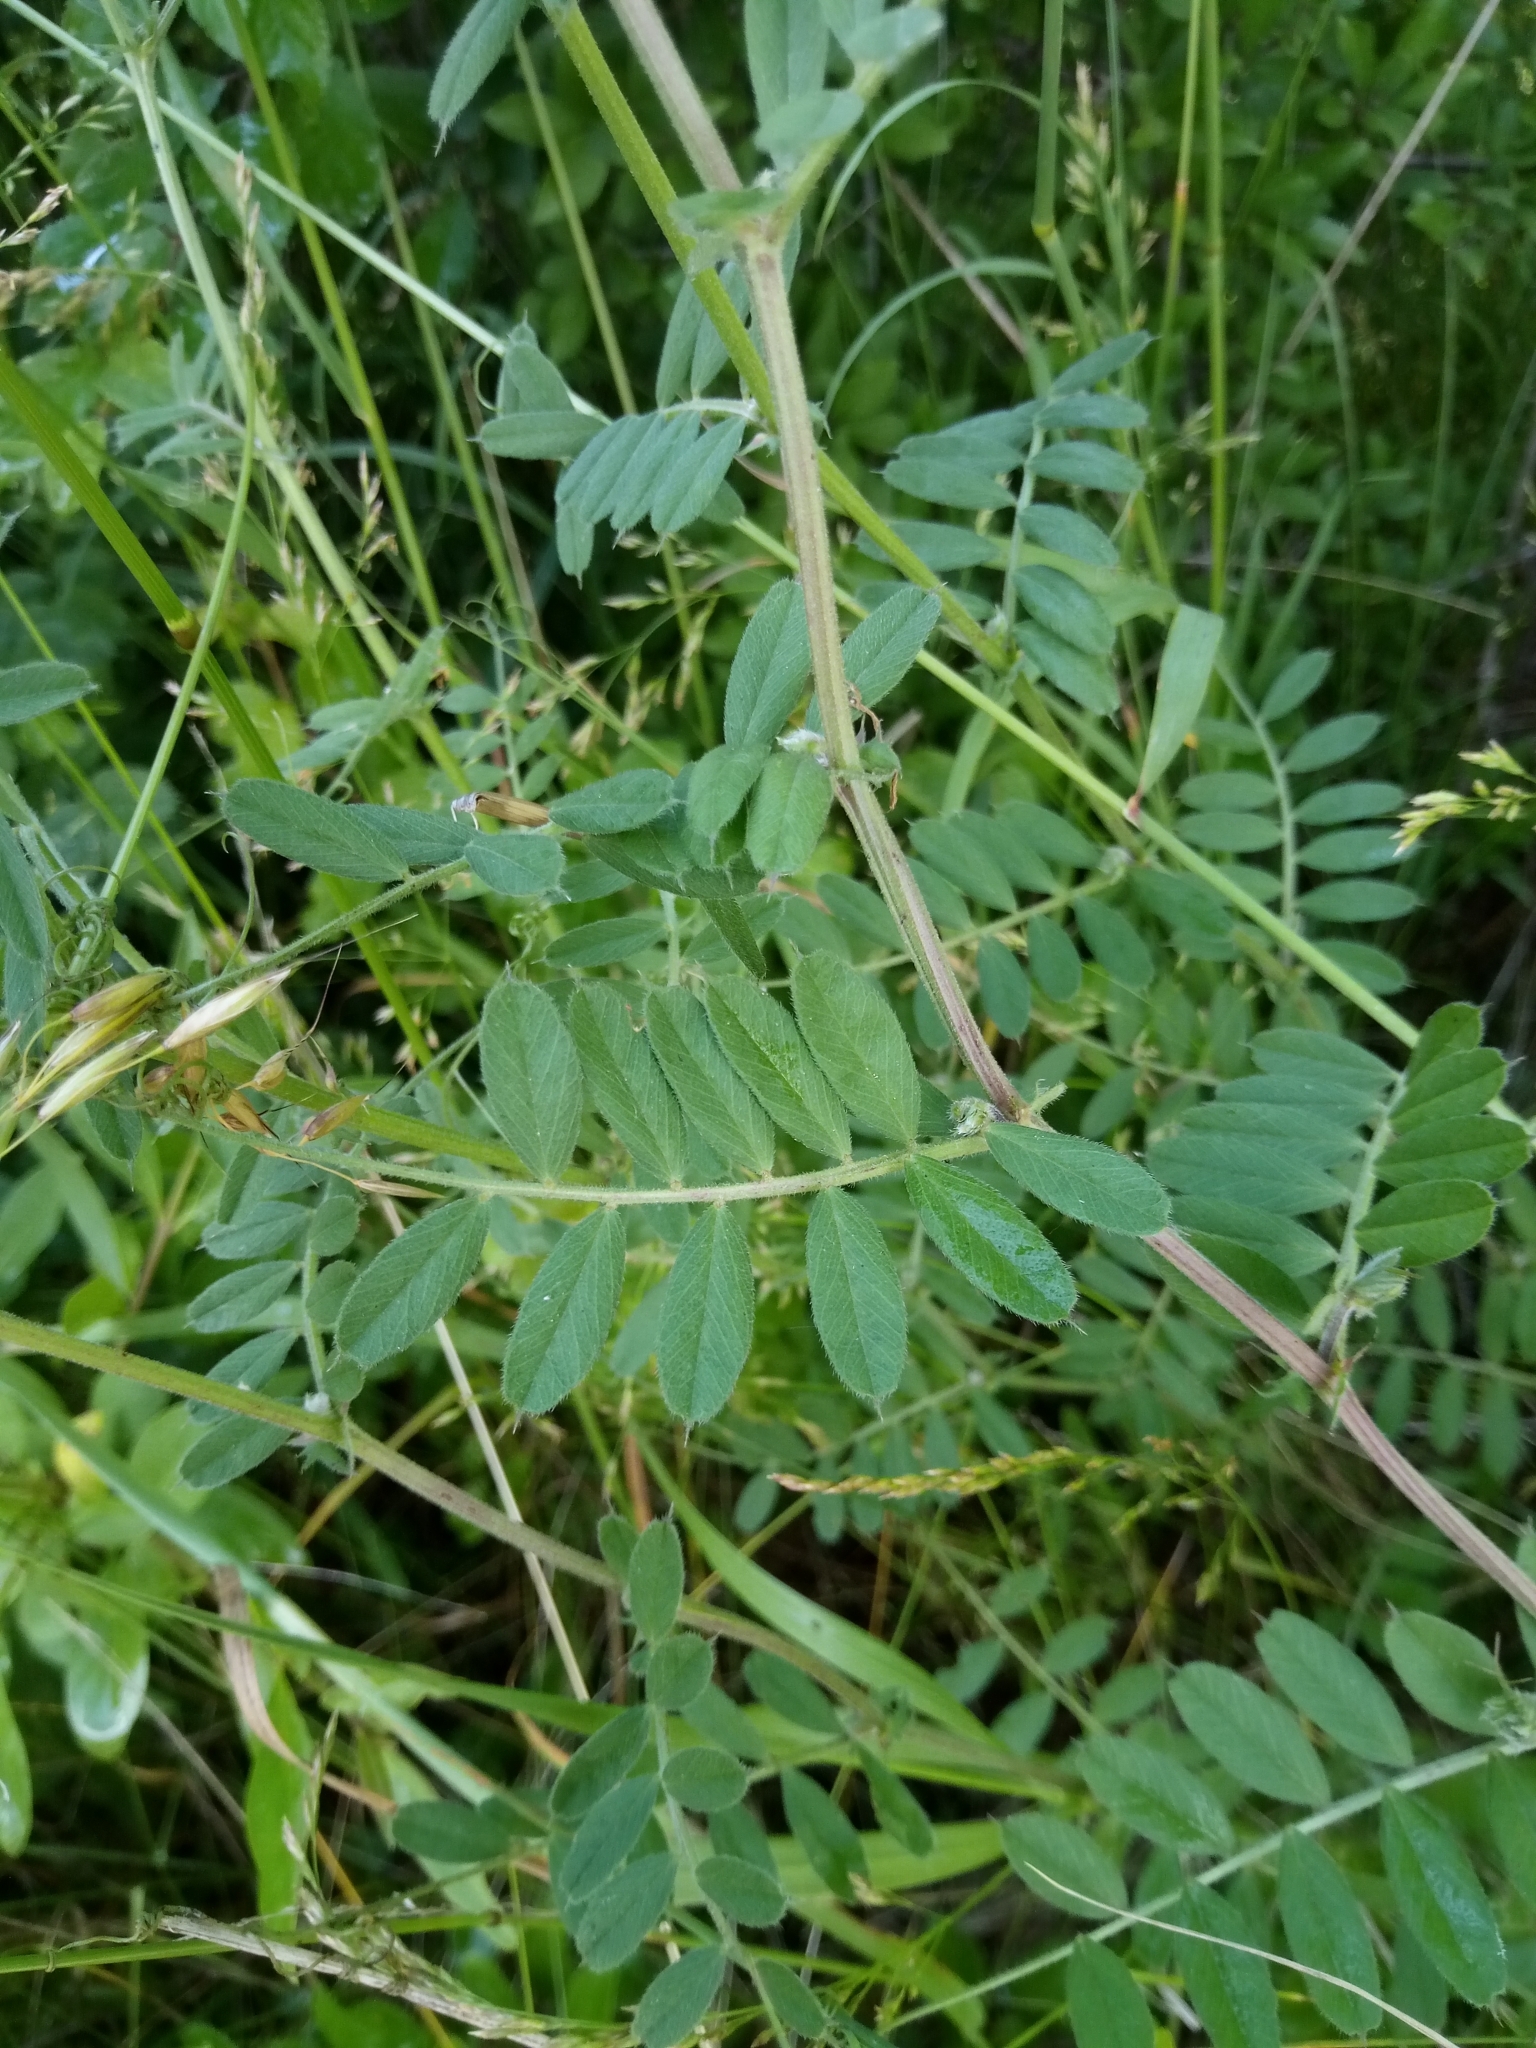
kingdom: Plantae
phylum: Tracheophyta
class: Magnoliopsida
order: Fabales
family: Fabaceae
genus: Vicia
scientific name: Vicia sativa
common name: Garden vetch
